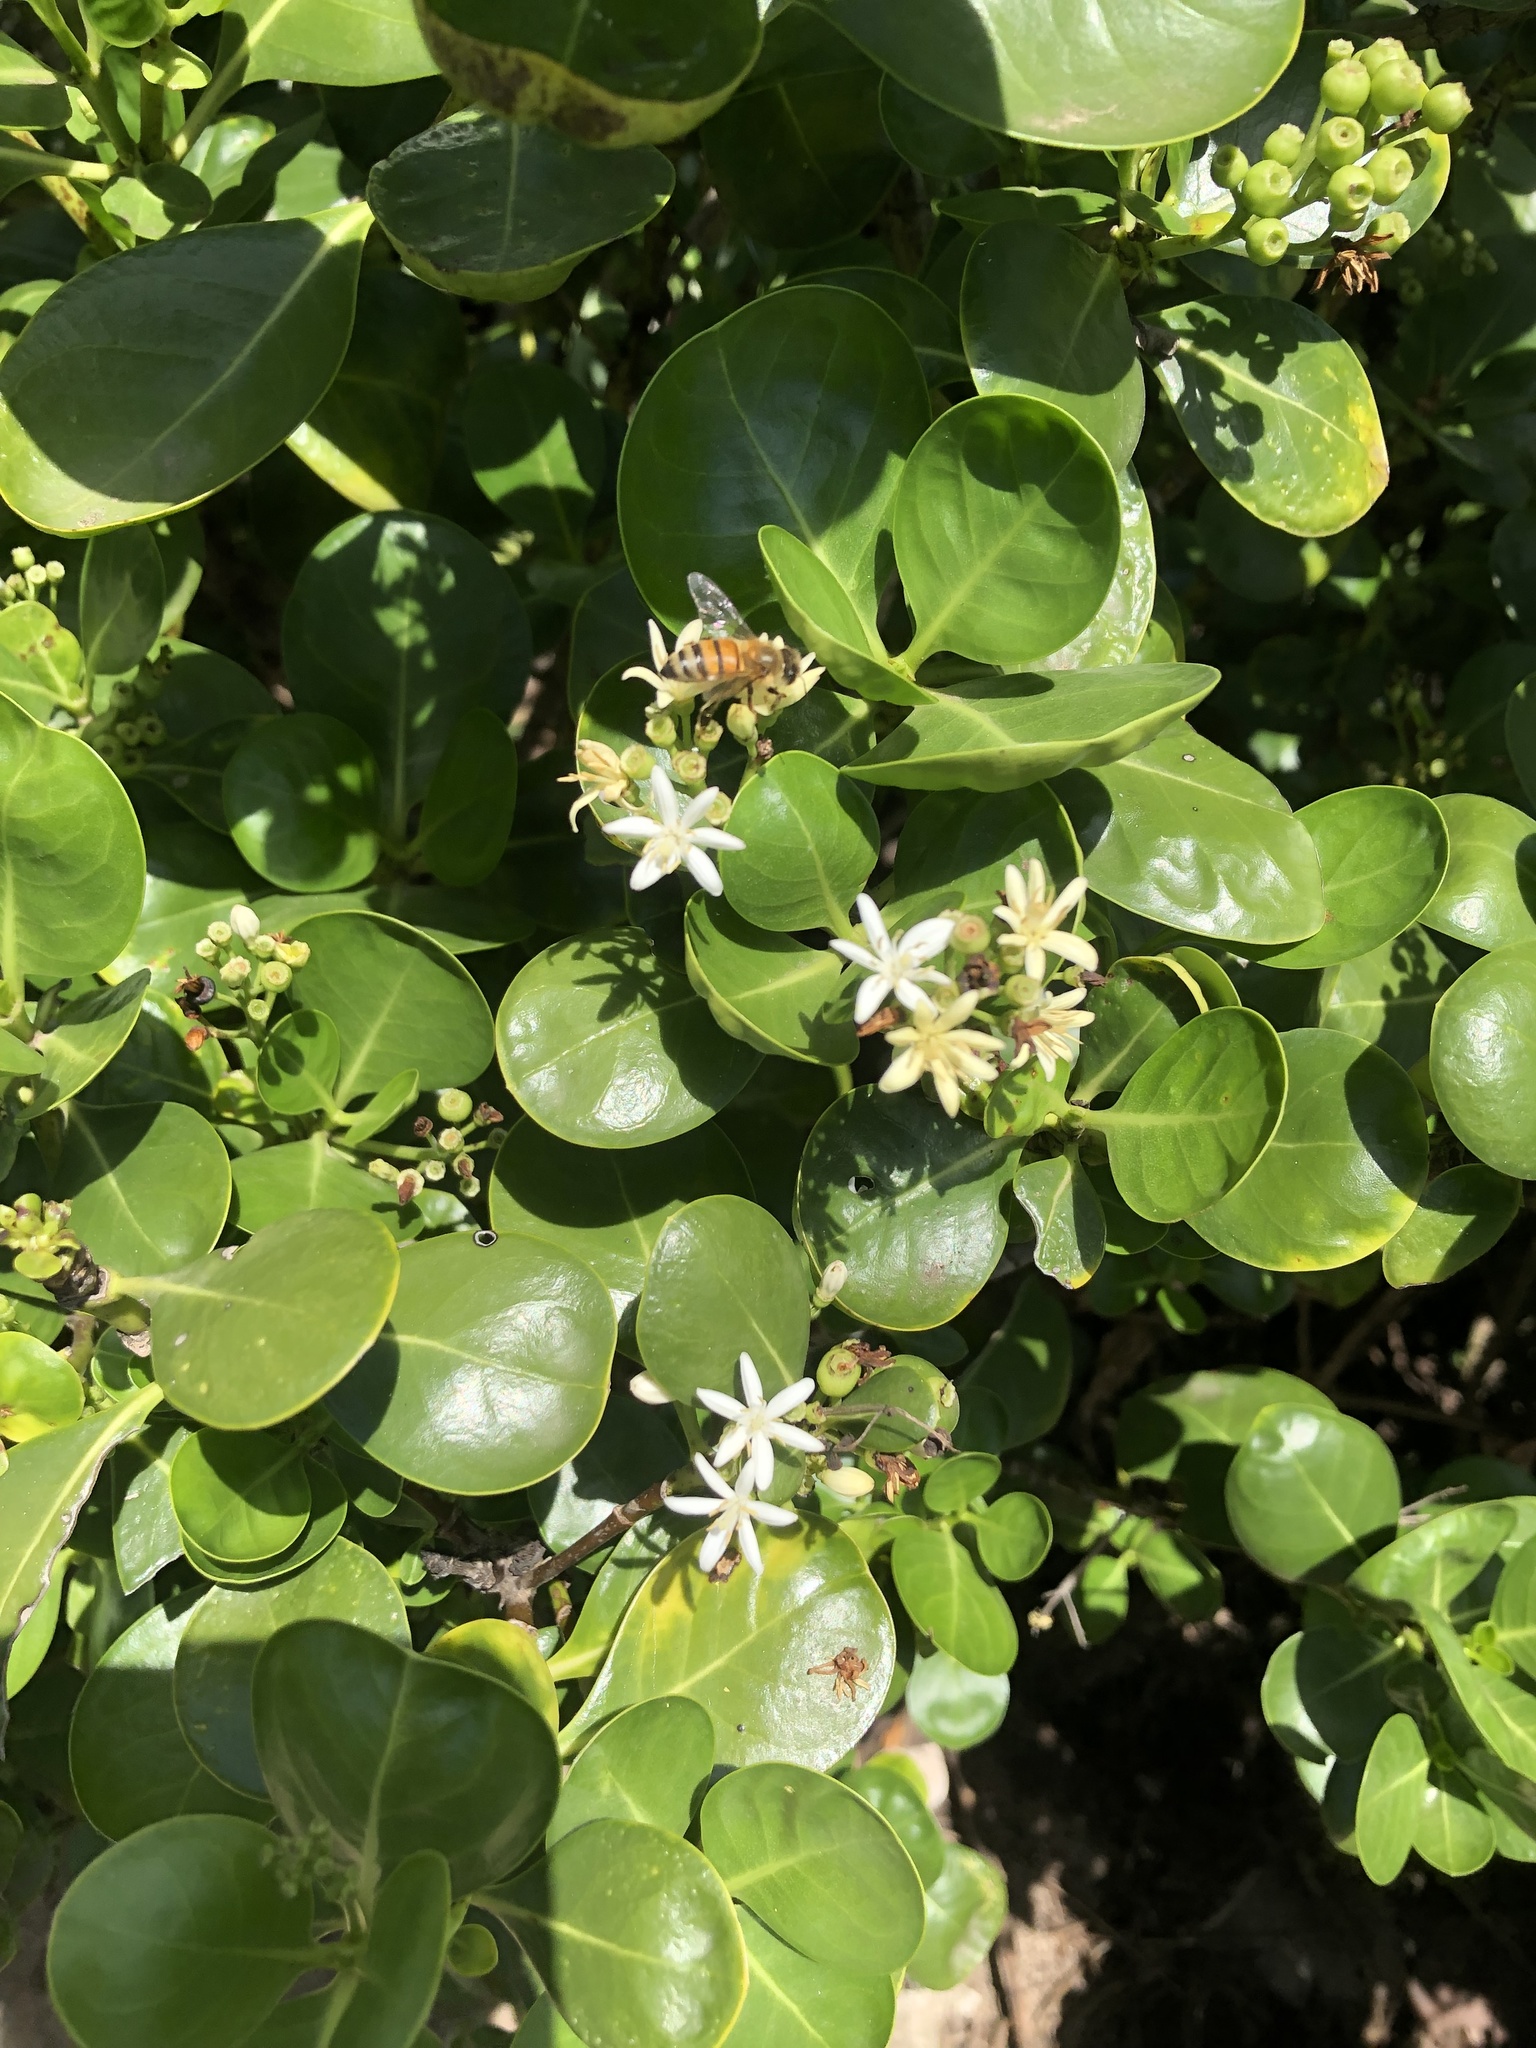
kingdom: Plantae
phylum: Tracheophyta
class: Magnoliopsida
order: Gentianales
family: Rubiaceae
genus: Erithalis
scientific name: Erithalis fruticosa
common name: Candlewood
